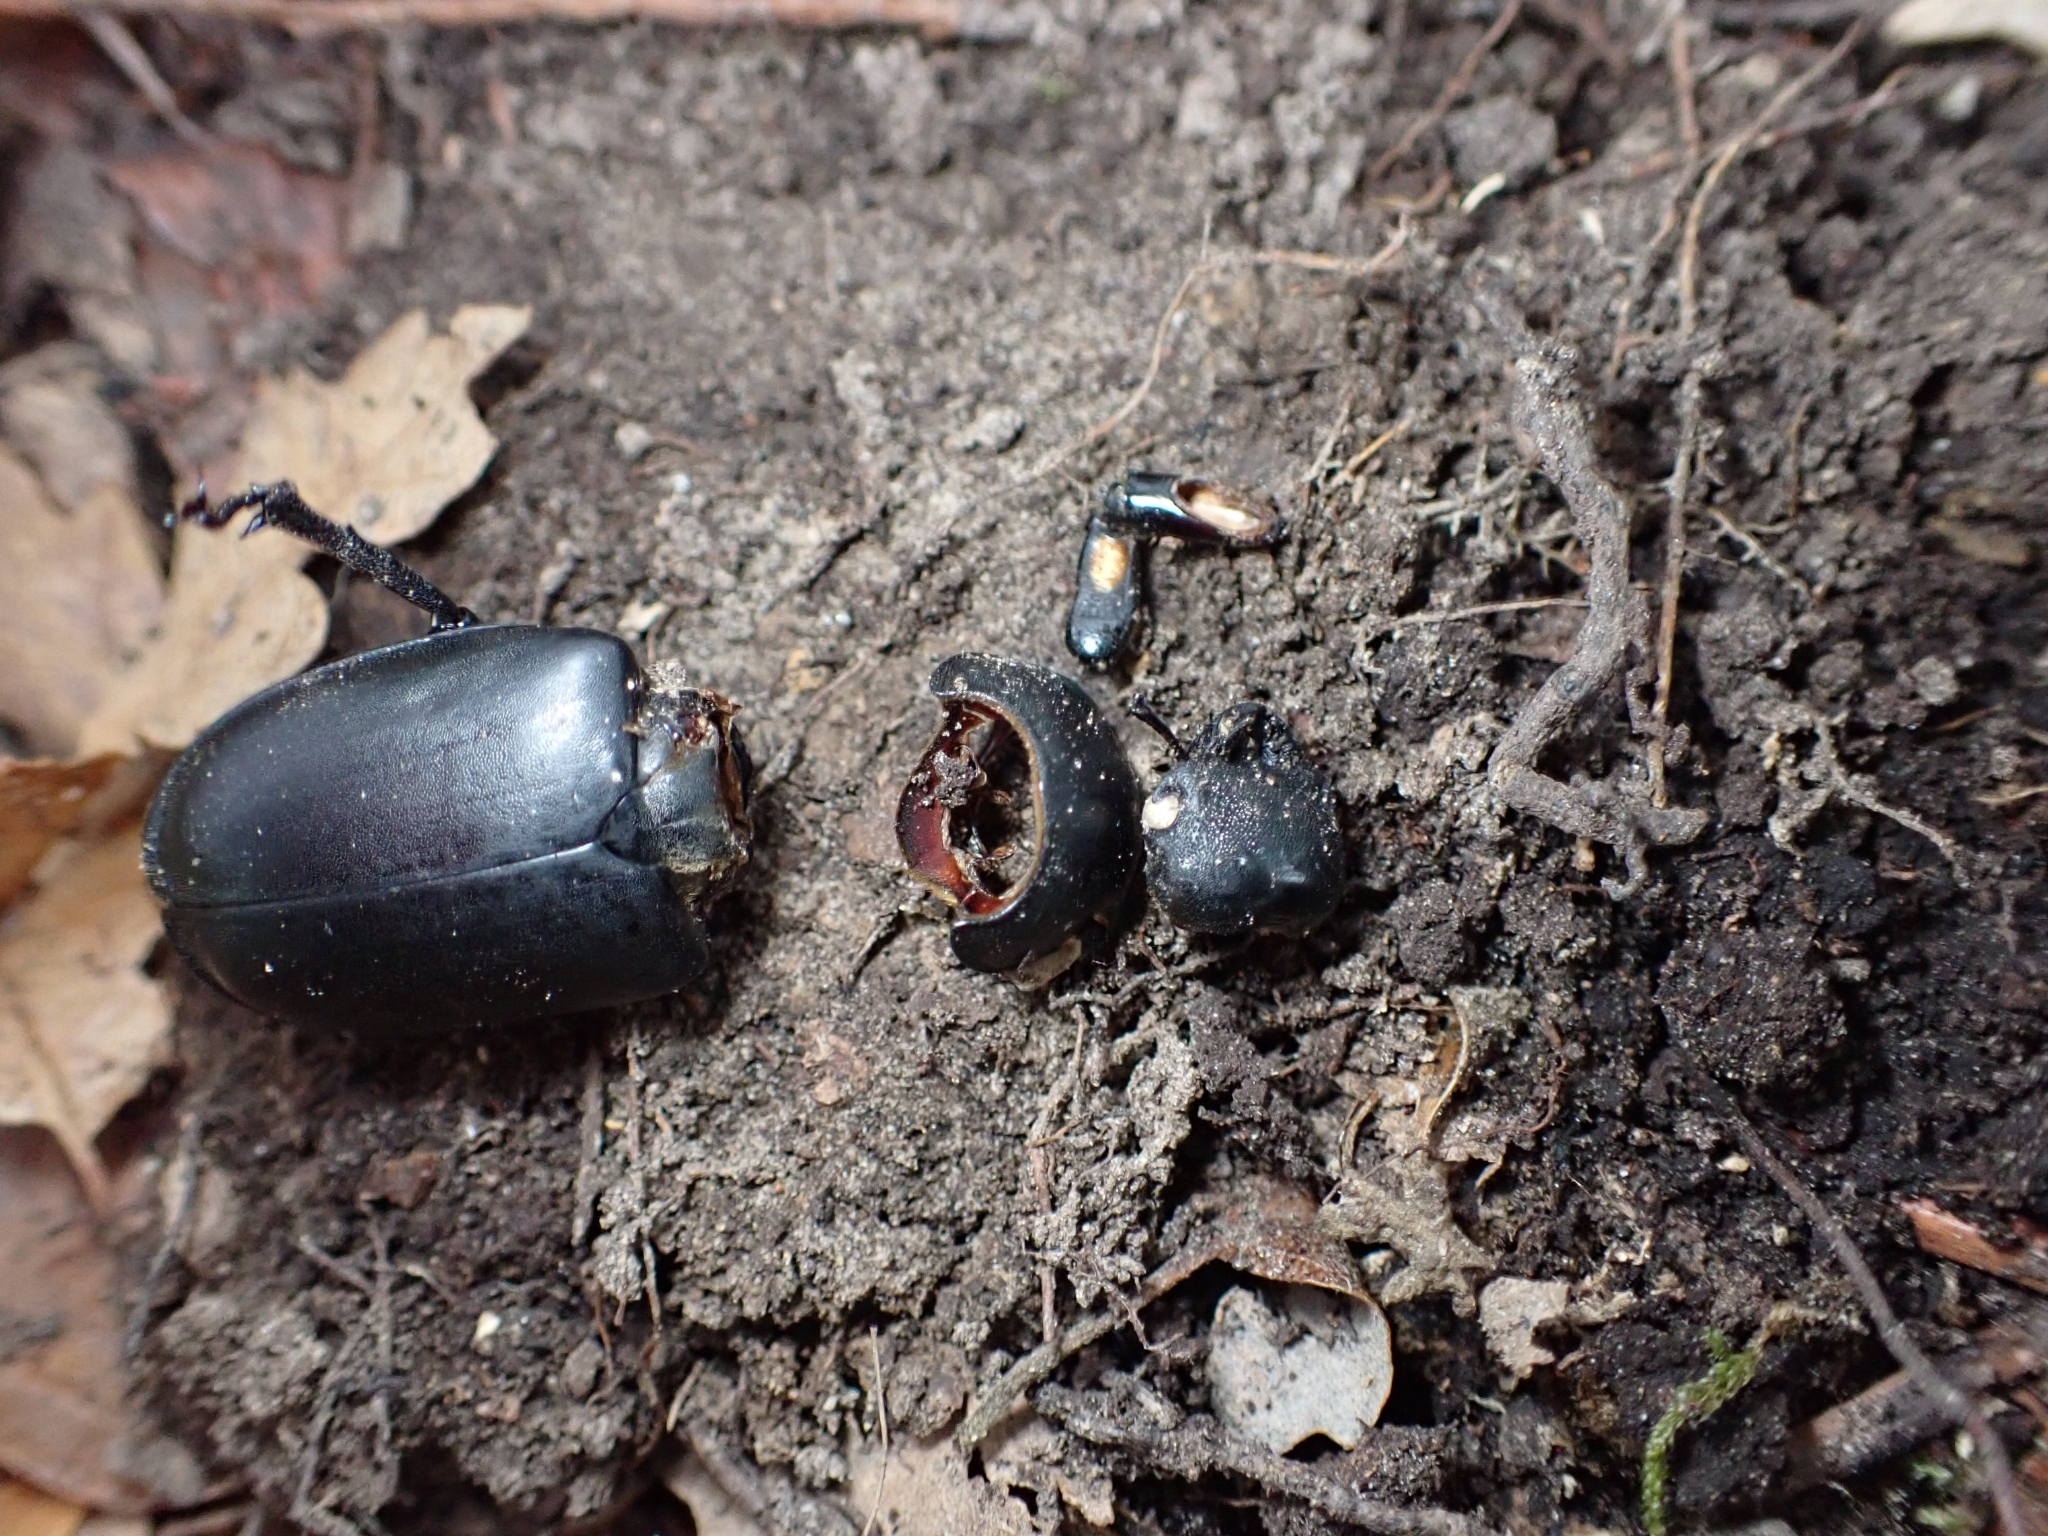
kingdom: Animalia
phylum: Arthropoda
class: Insecta
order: Coleoptera
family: Lucanidae
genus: Lucanus
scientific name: Lucanus cervus
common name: Stag beetle
